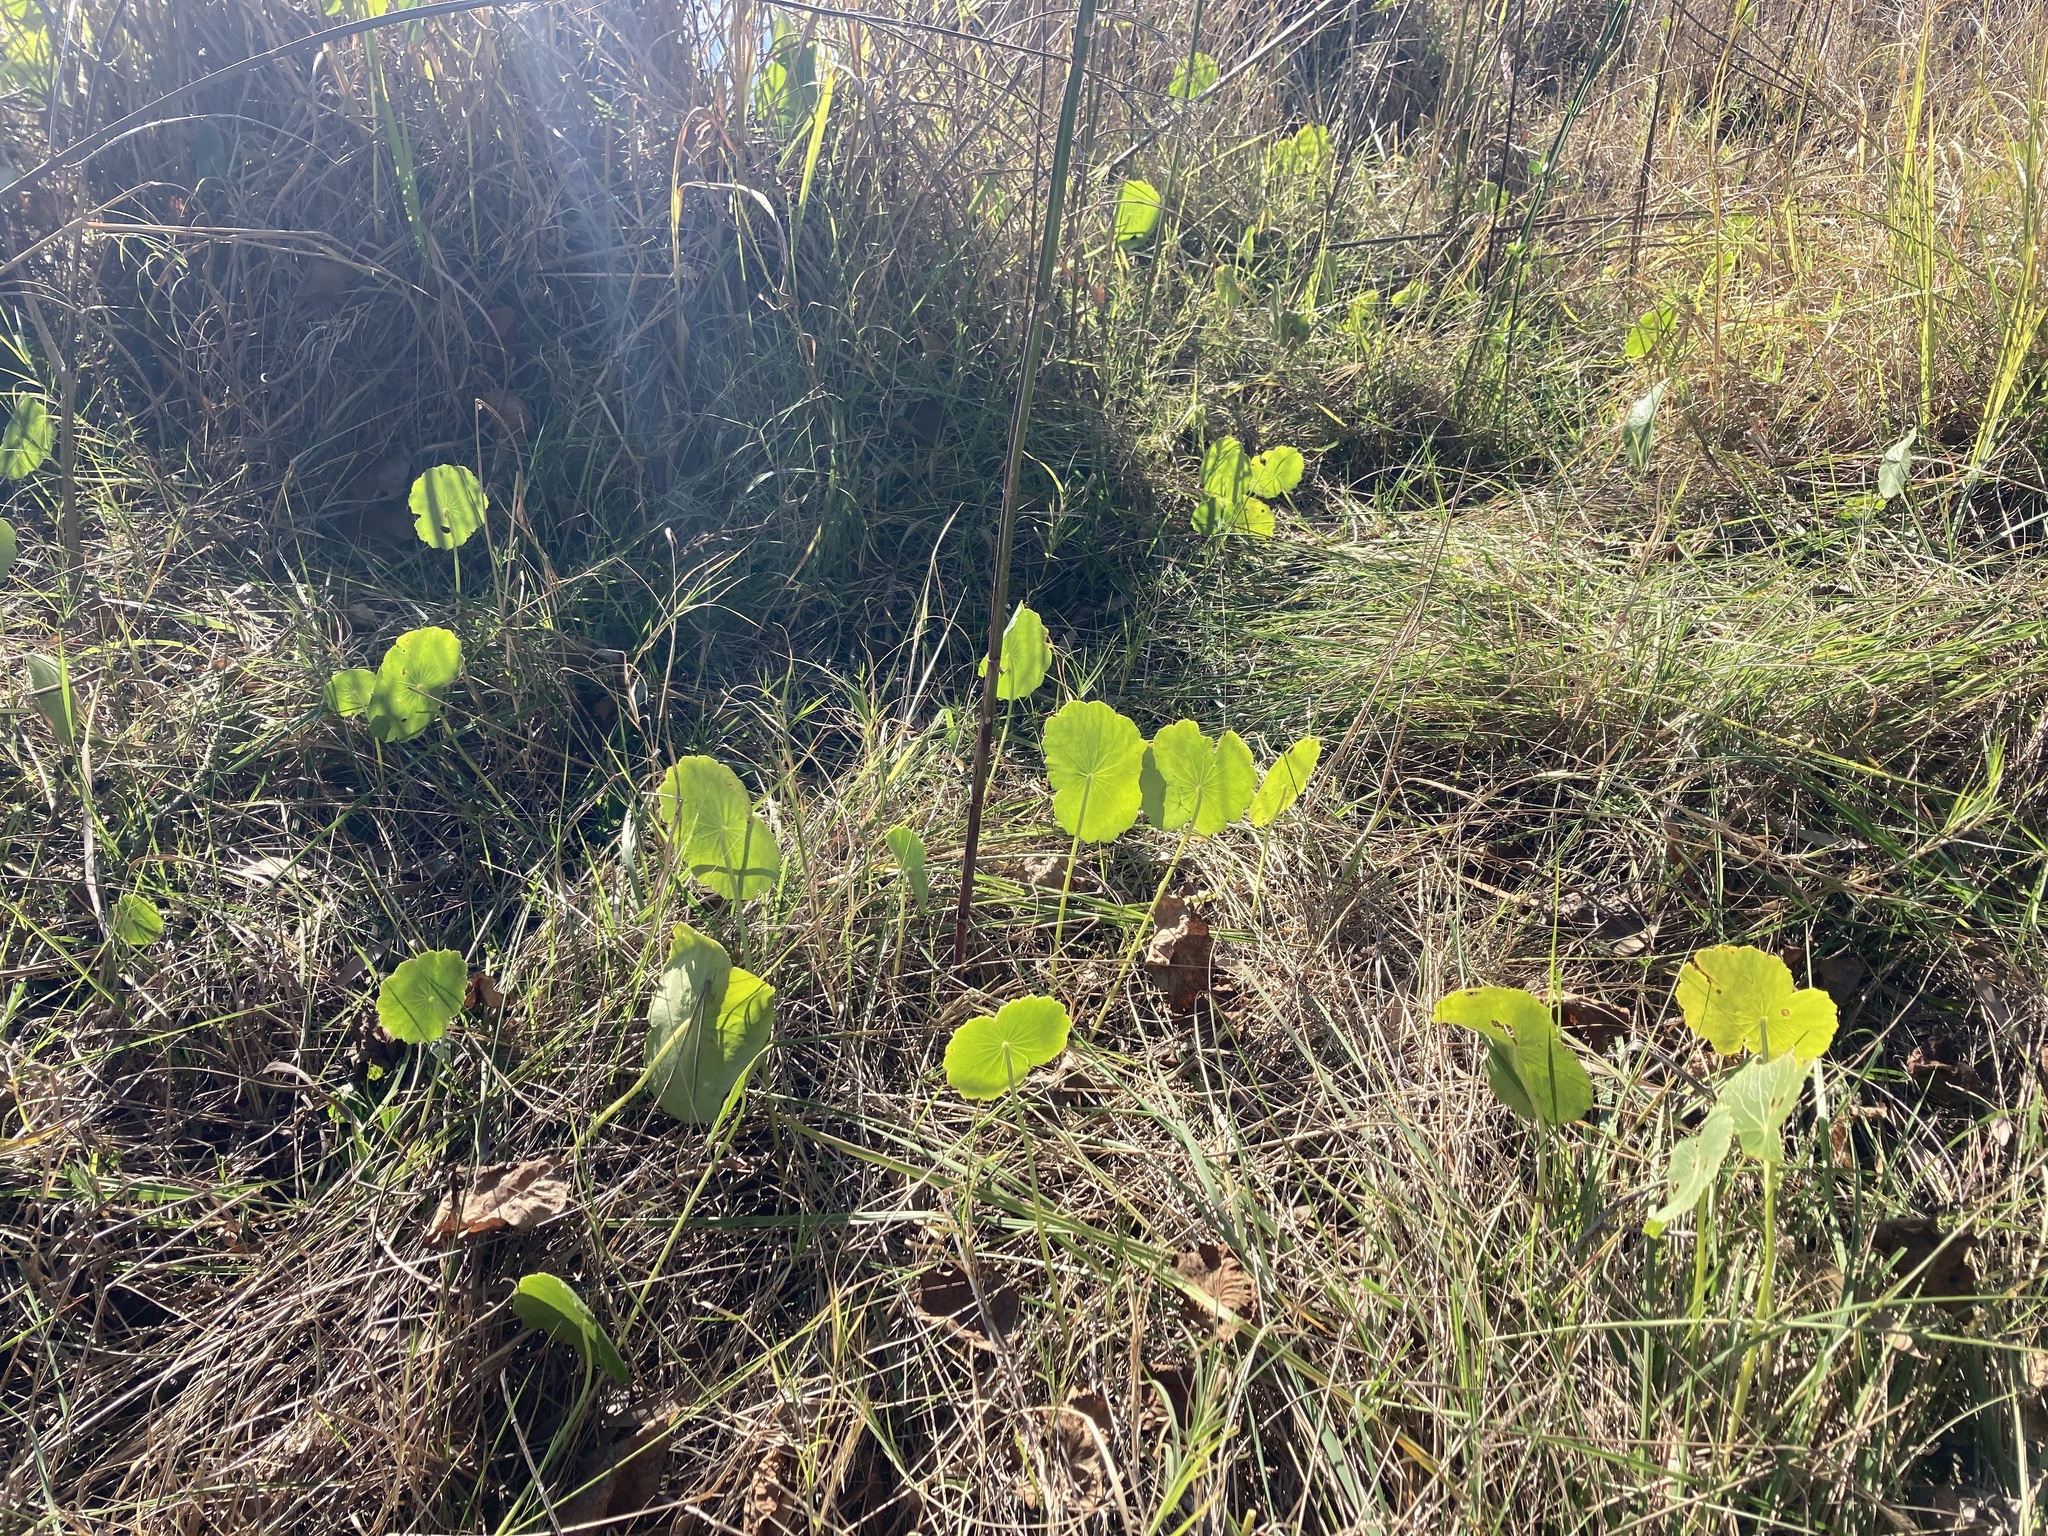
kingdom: Plantae
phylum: Tracheophyta
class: Magnoliopsida
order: Apiales
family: Araliaceae
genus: Hydrocotyle
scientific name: Hydrocotyle bonariensis
